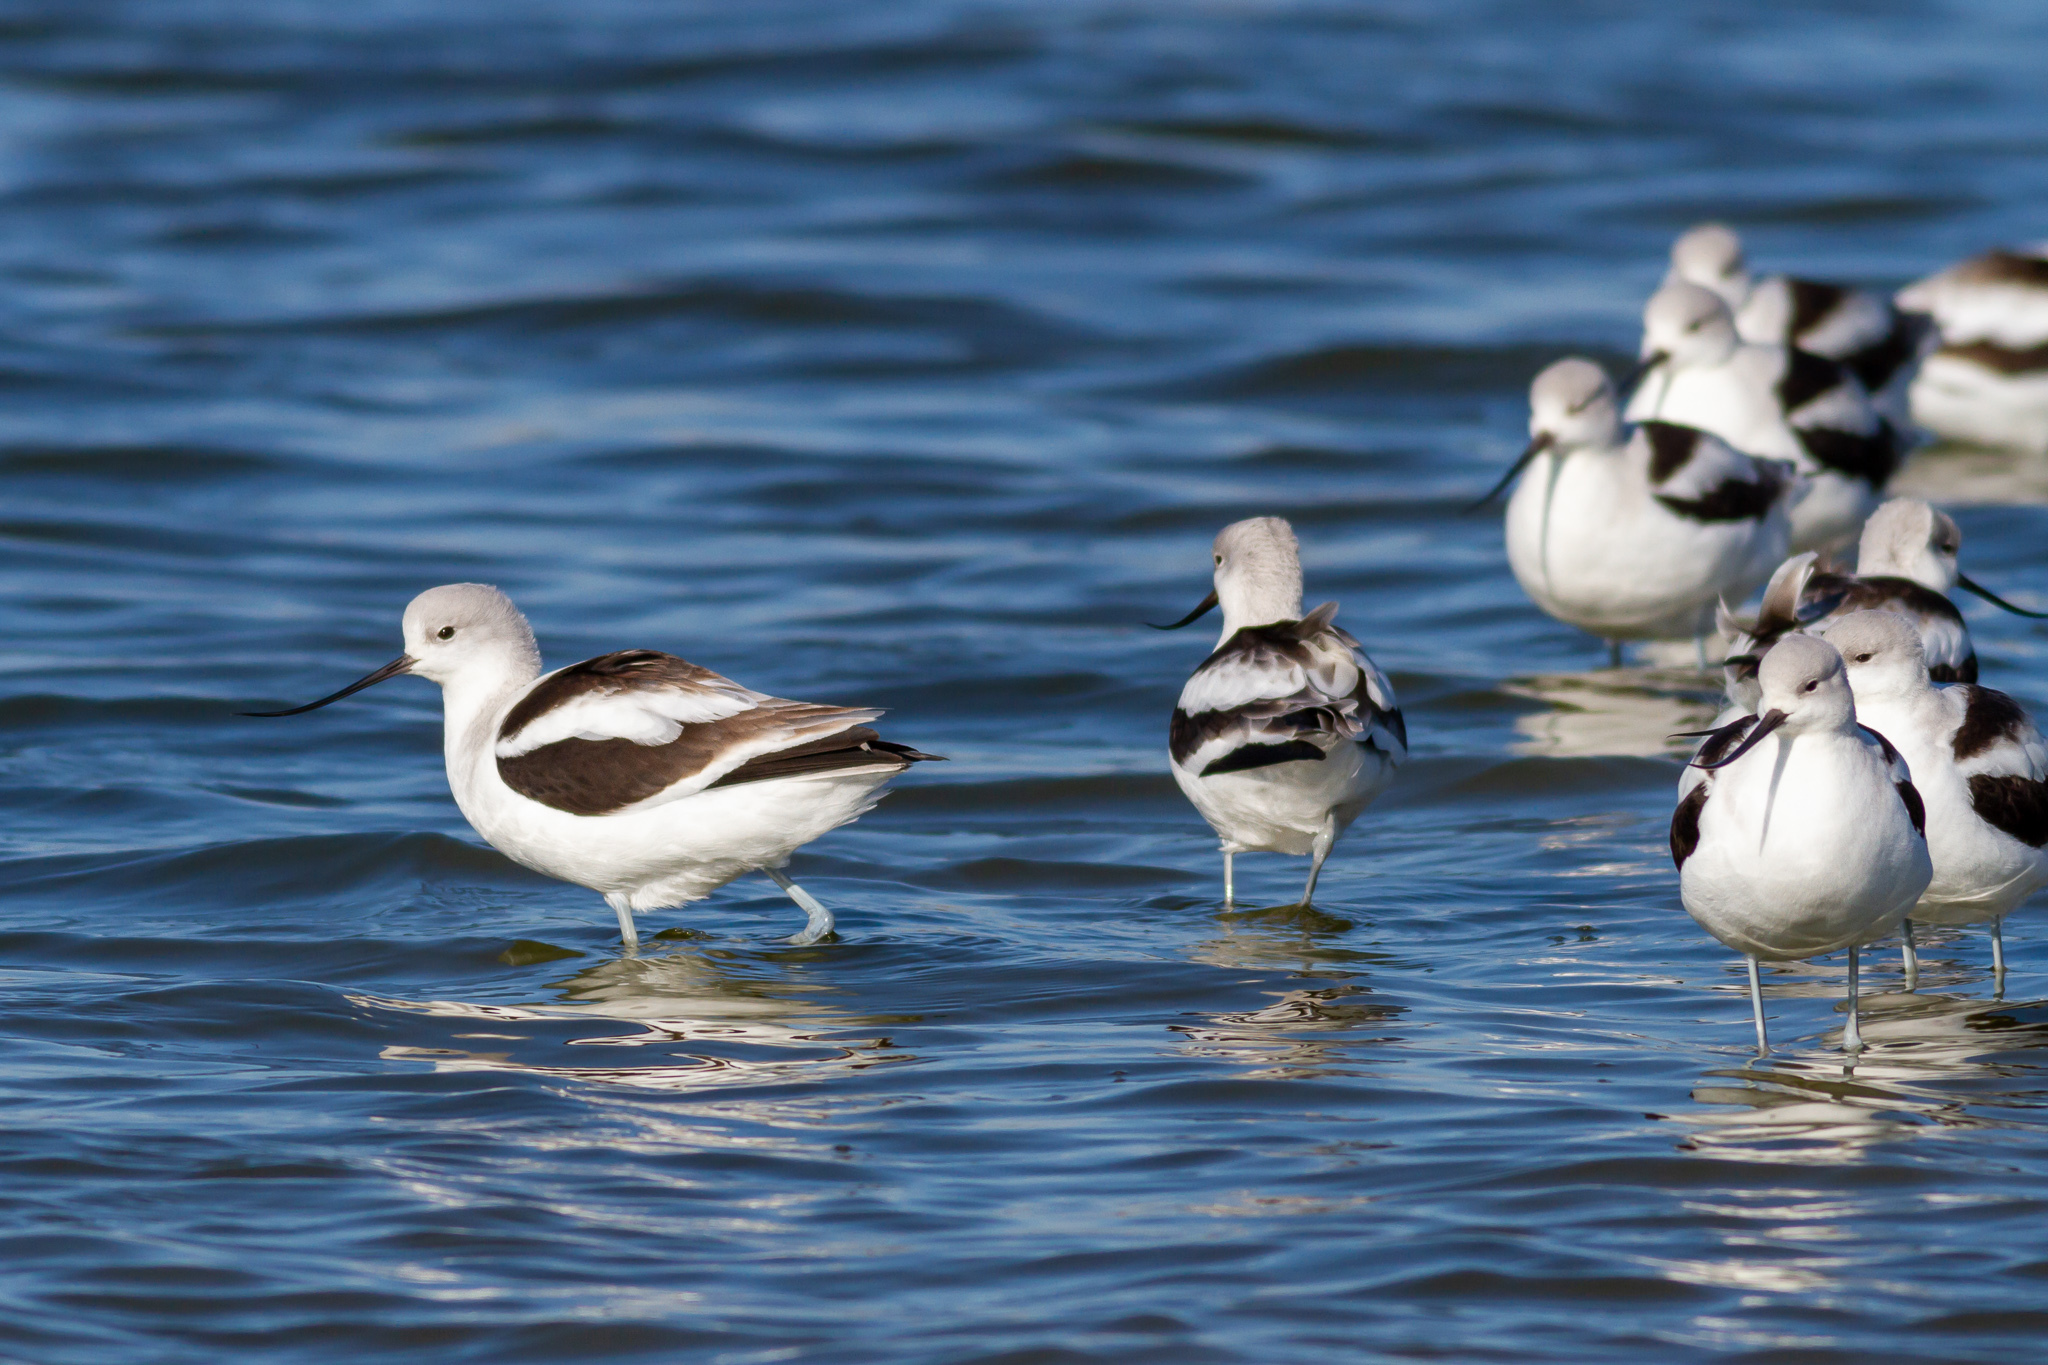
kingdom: Animalia
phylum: Chordata
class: Aves
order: Charadriiformes
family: Recurvirostridae
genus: Recurvirostra
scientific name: Recurvirostra americana
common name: American avocet
